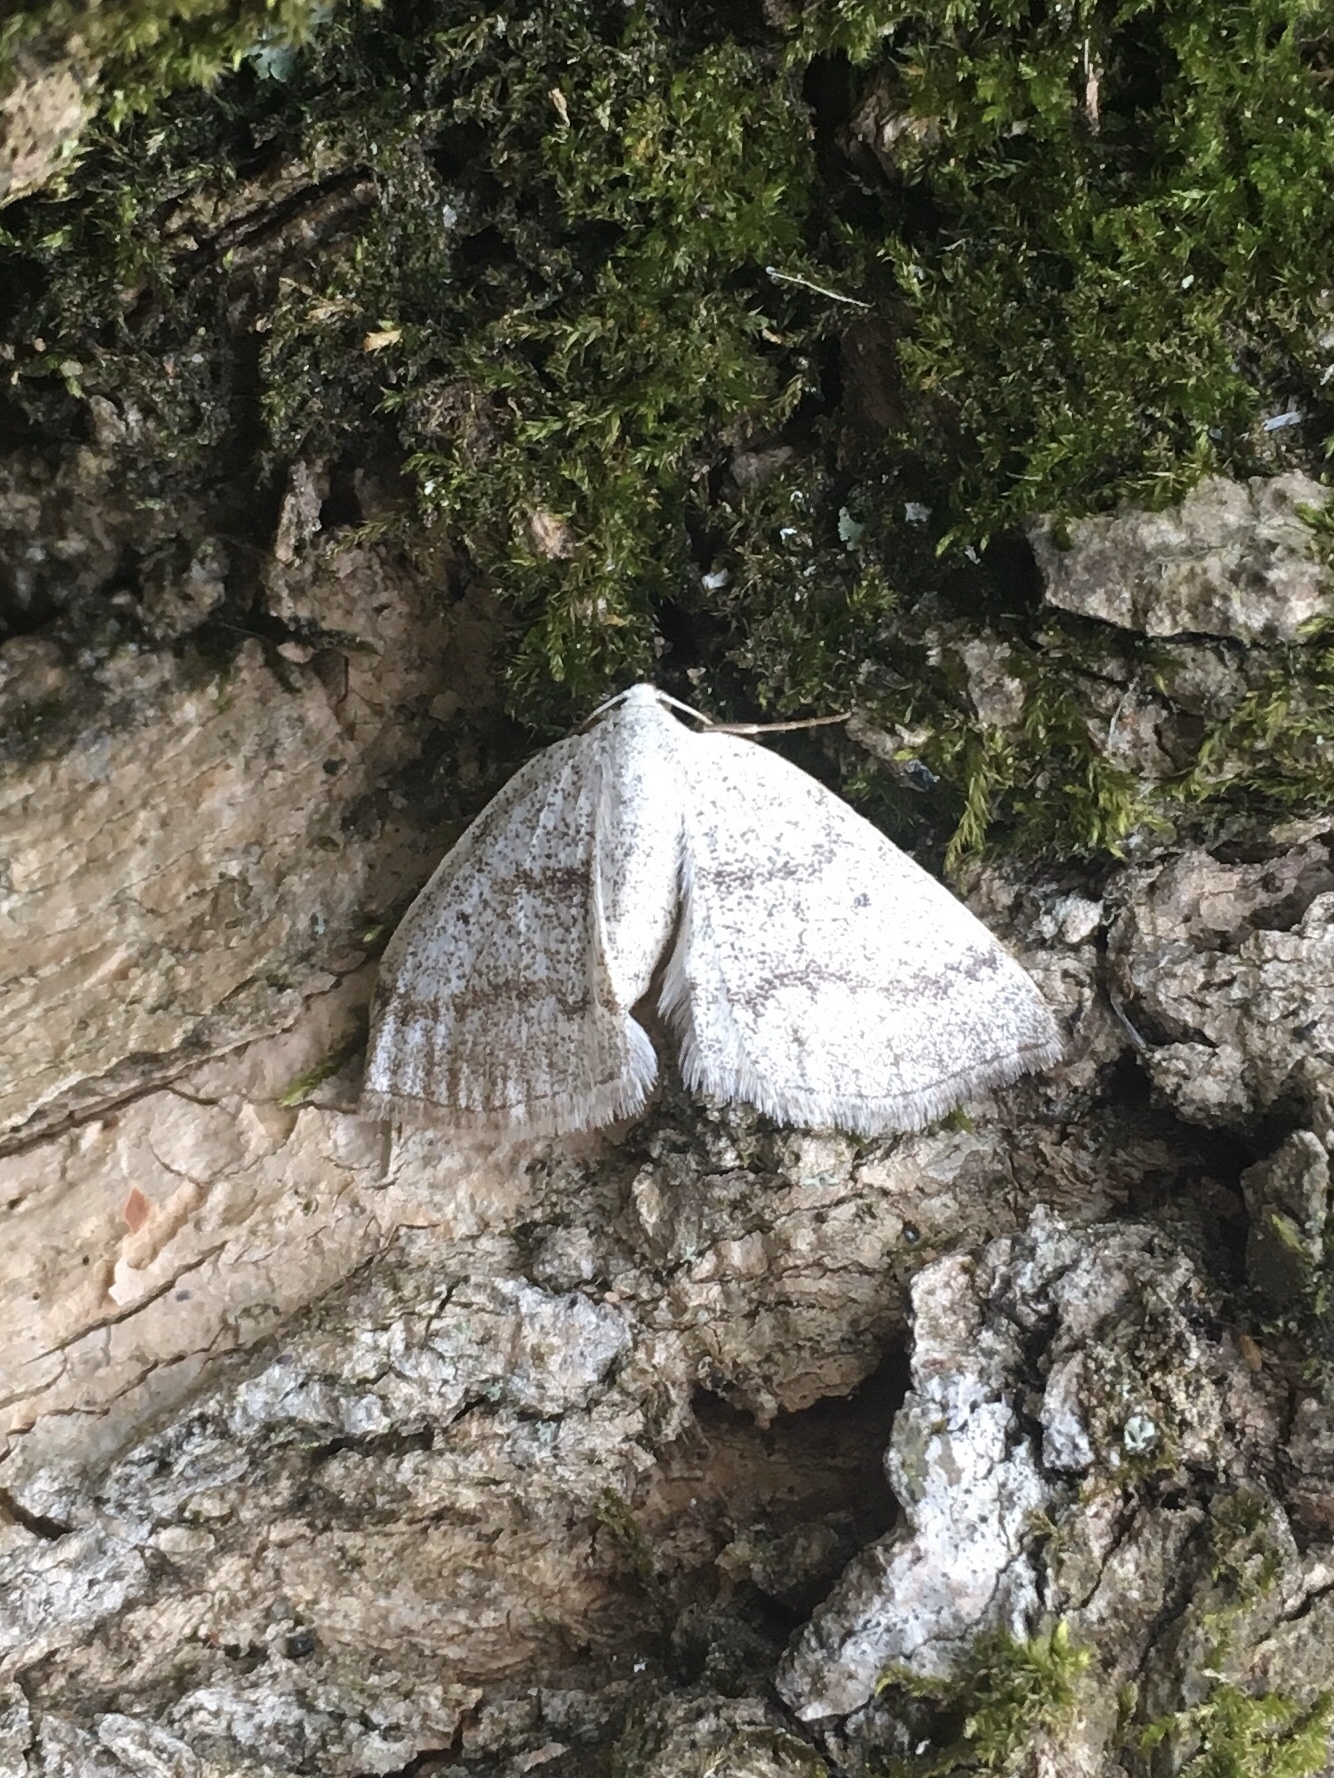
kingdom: Animalia
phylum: Arthropoda
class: Insecta
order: Lepidoptera
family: Geometridae
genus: Lomographa
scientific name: Lomographa glomeraria
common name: Gray spring moth
